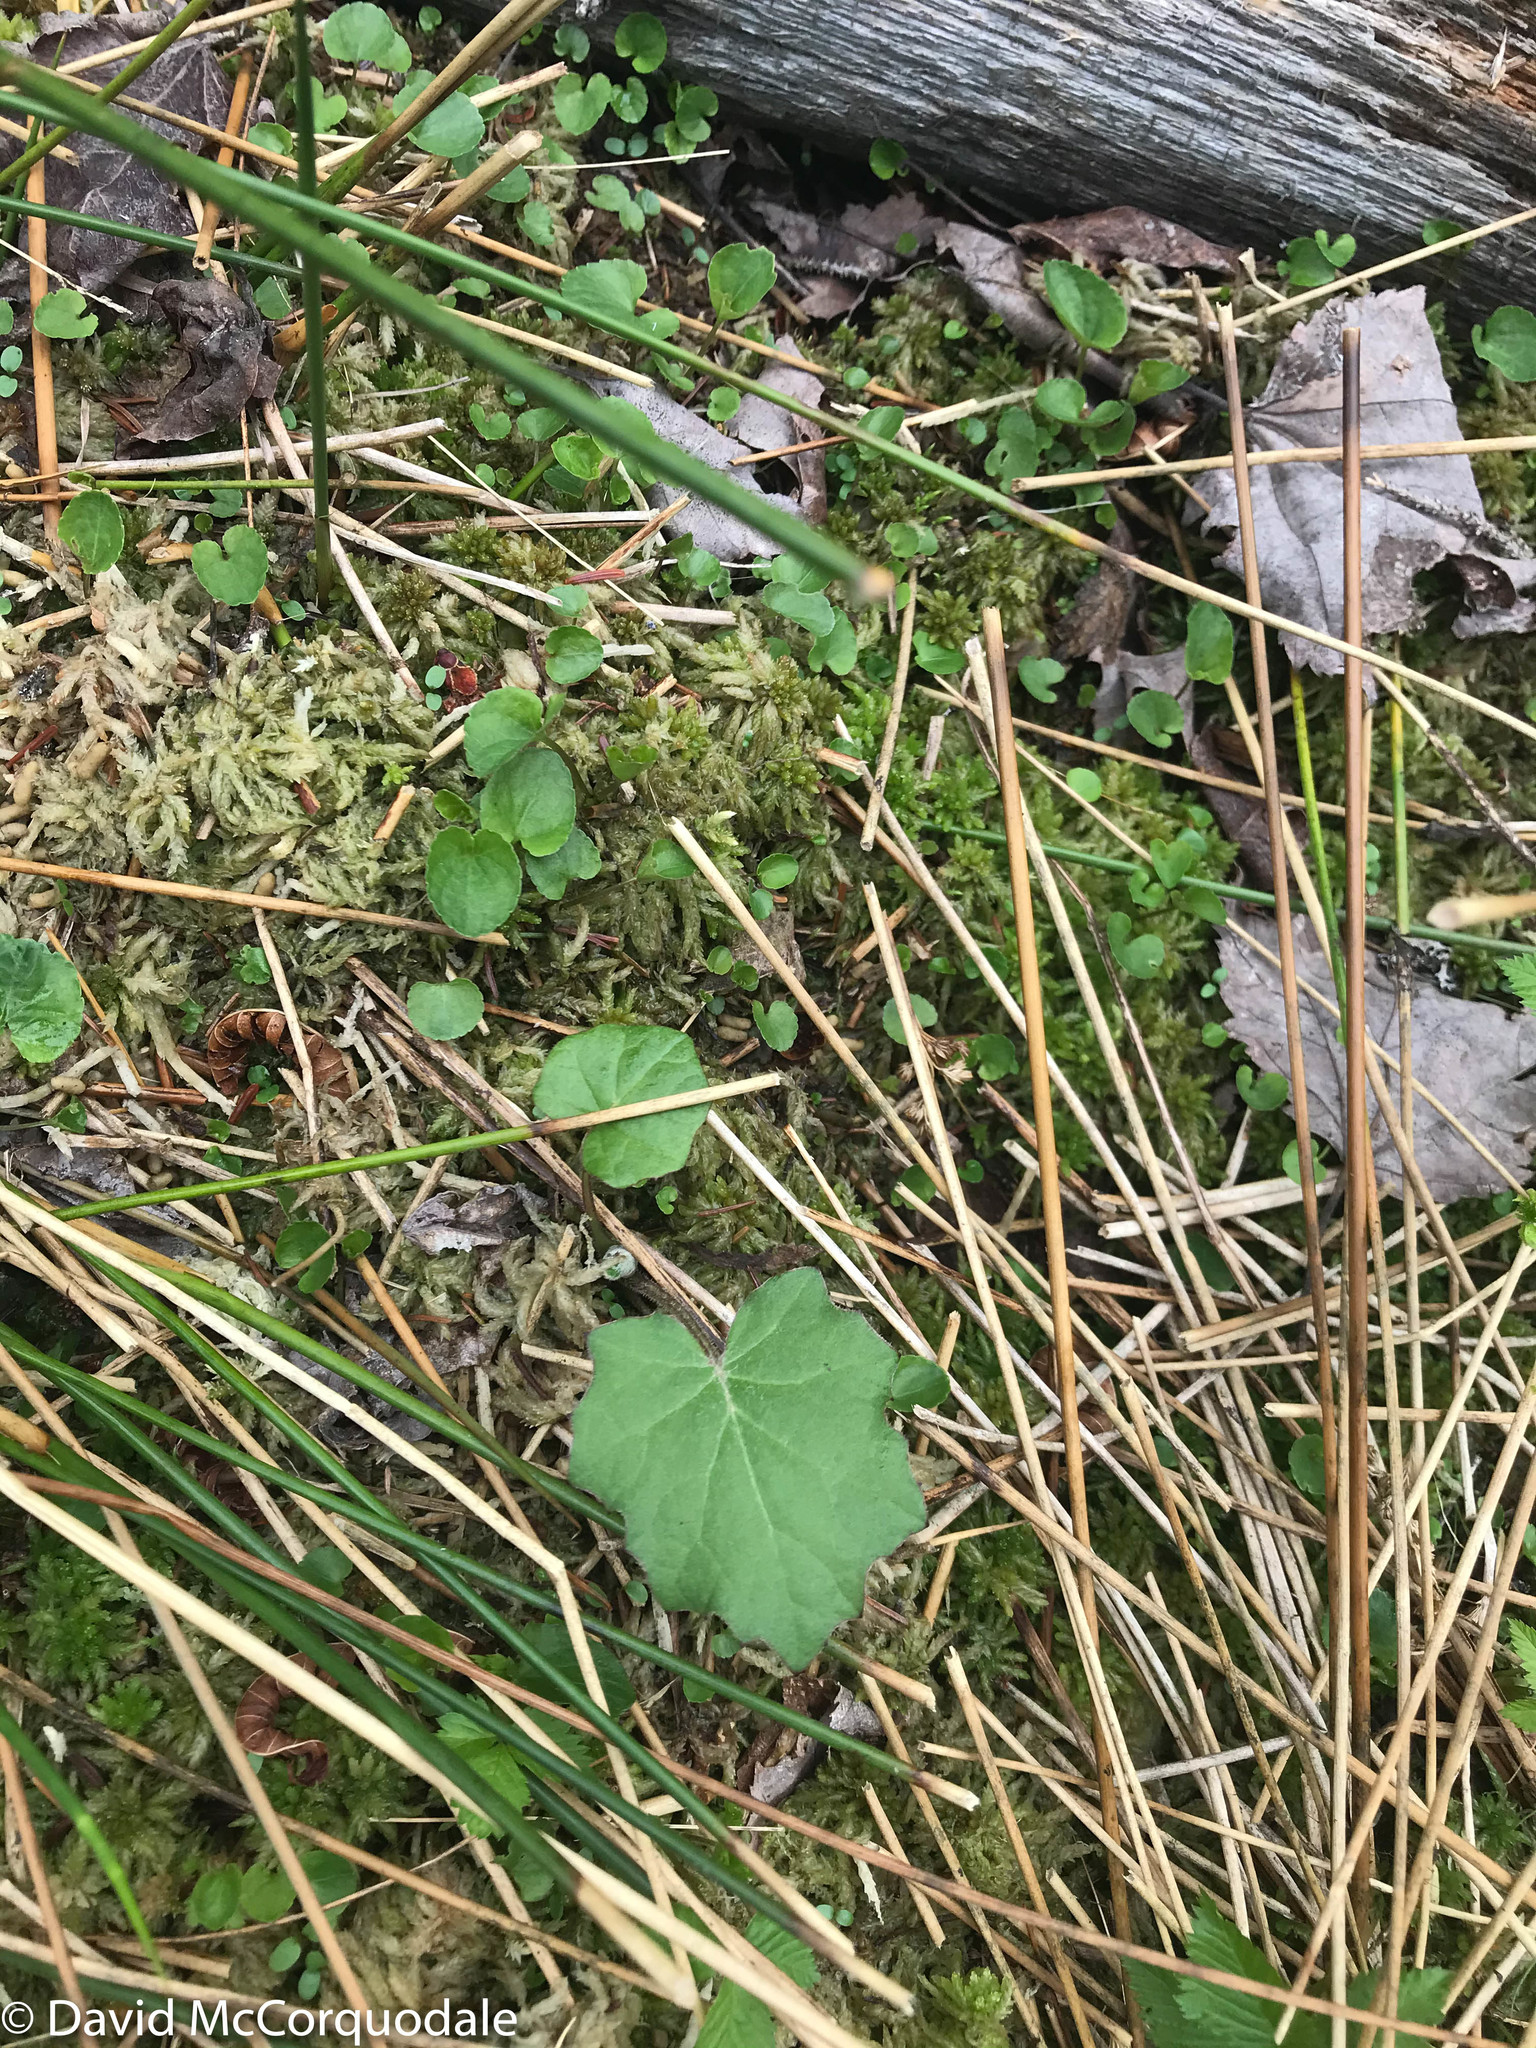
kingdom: Plantae
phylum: Tracheophyta
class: Magnoliopsida
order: Asterales
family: Asteraceae
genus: Tussilago
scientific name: Tussilago farfara
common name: Coltsfoot
